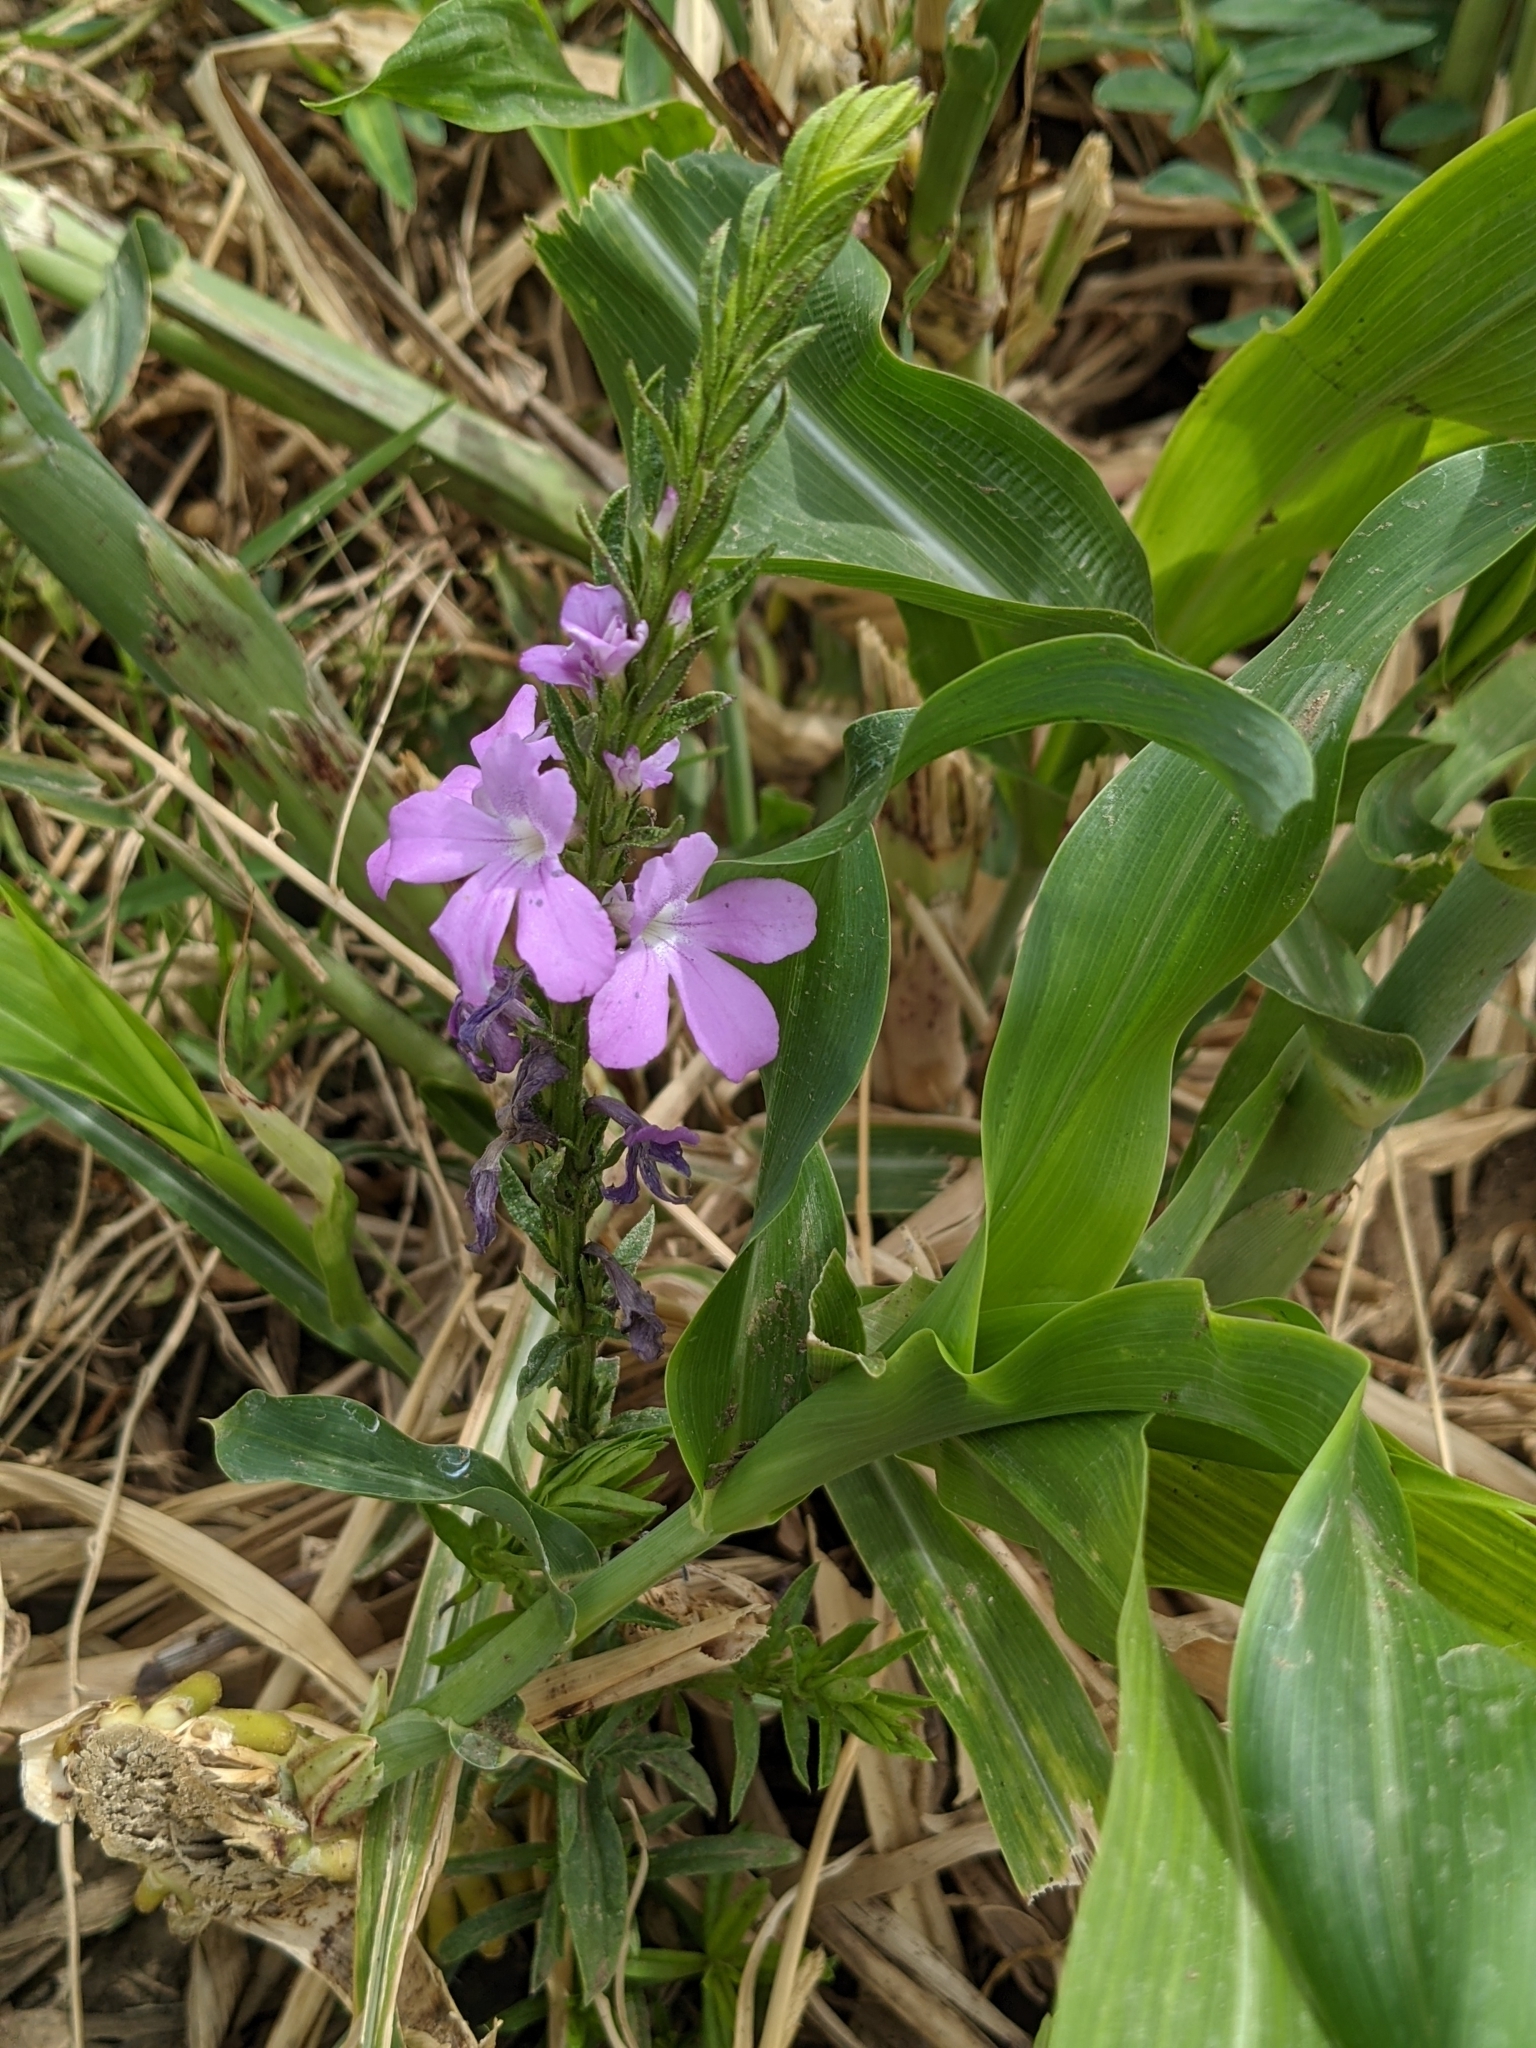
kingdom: Plantae
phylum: Tracheophyta
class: Magnoliopsida
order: Lamiales
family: Orobanchaceae
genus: Striga
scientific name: Striga hermonthica
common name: Purple witchweed
